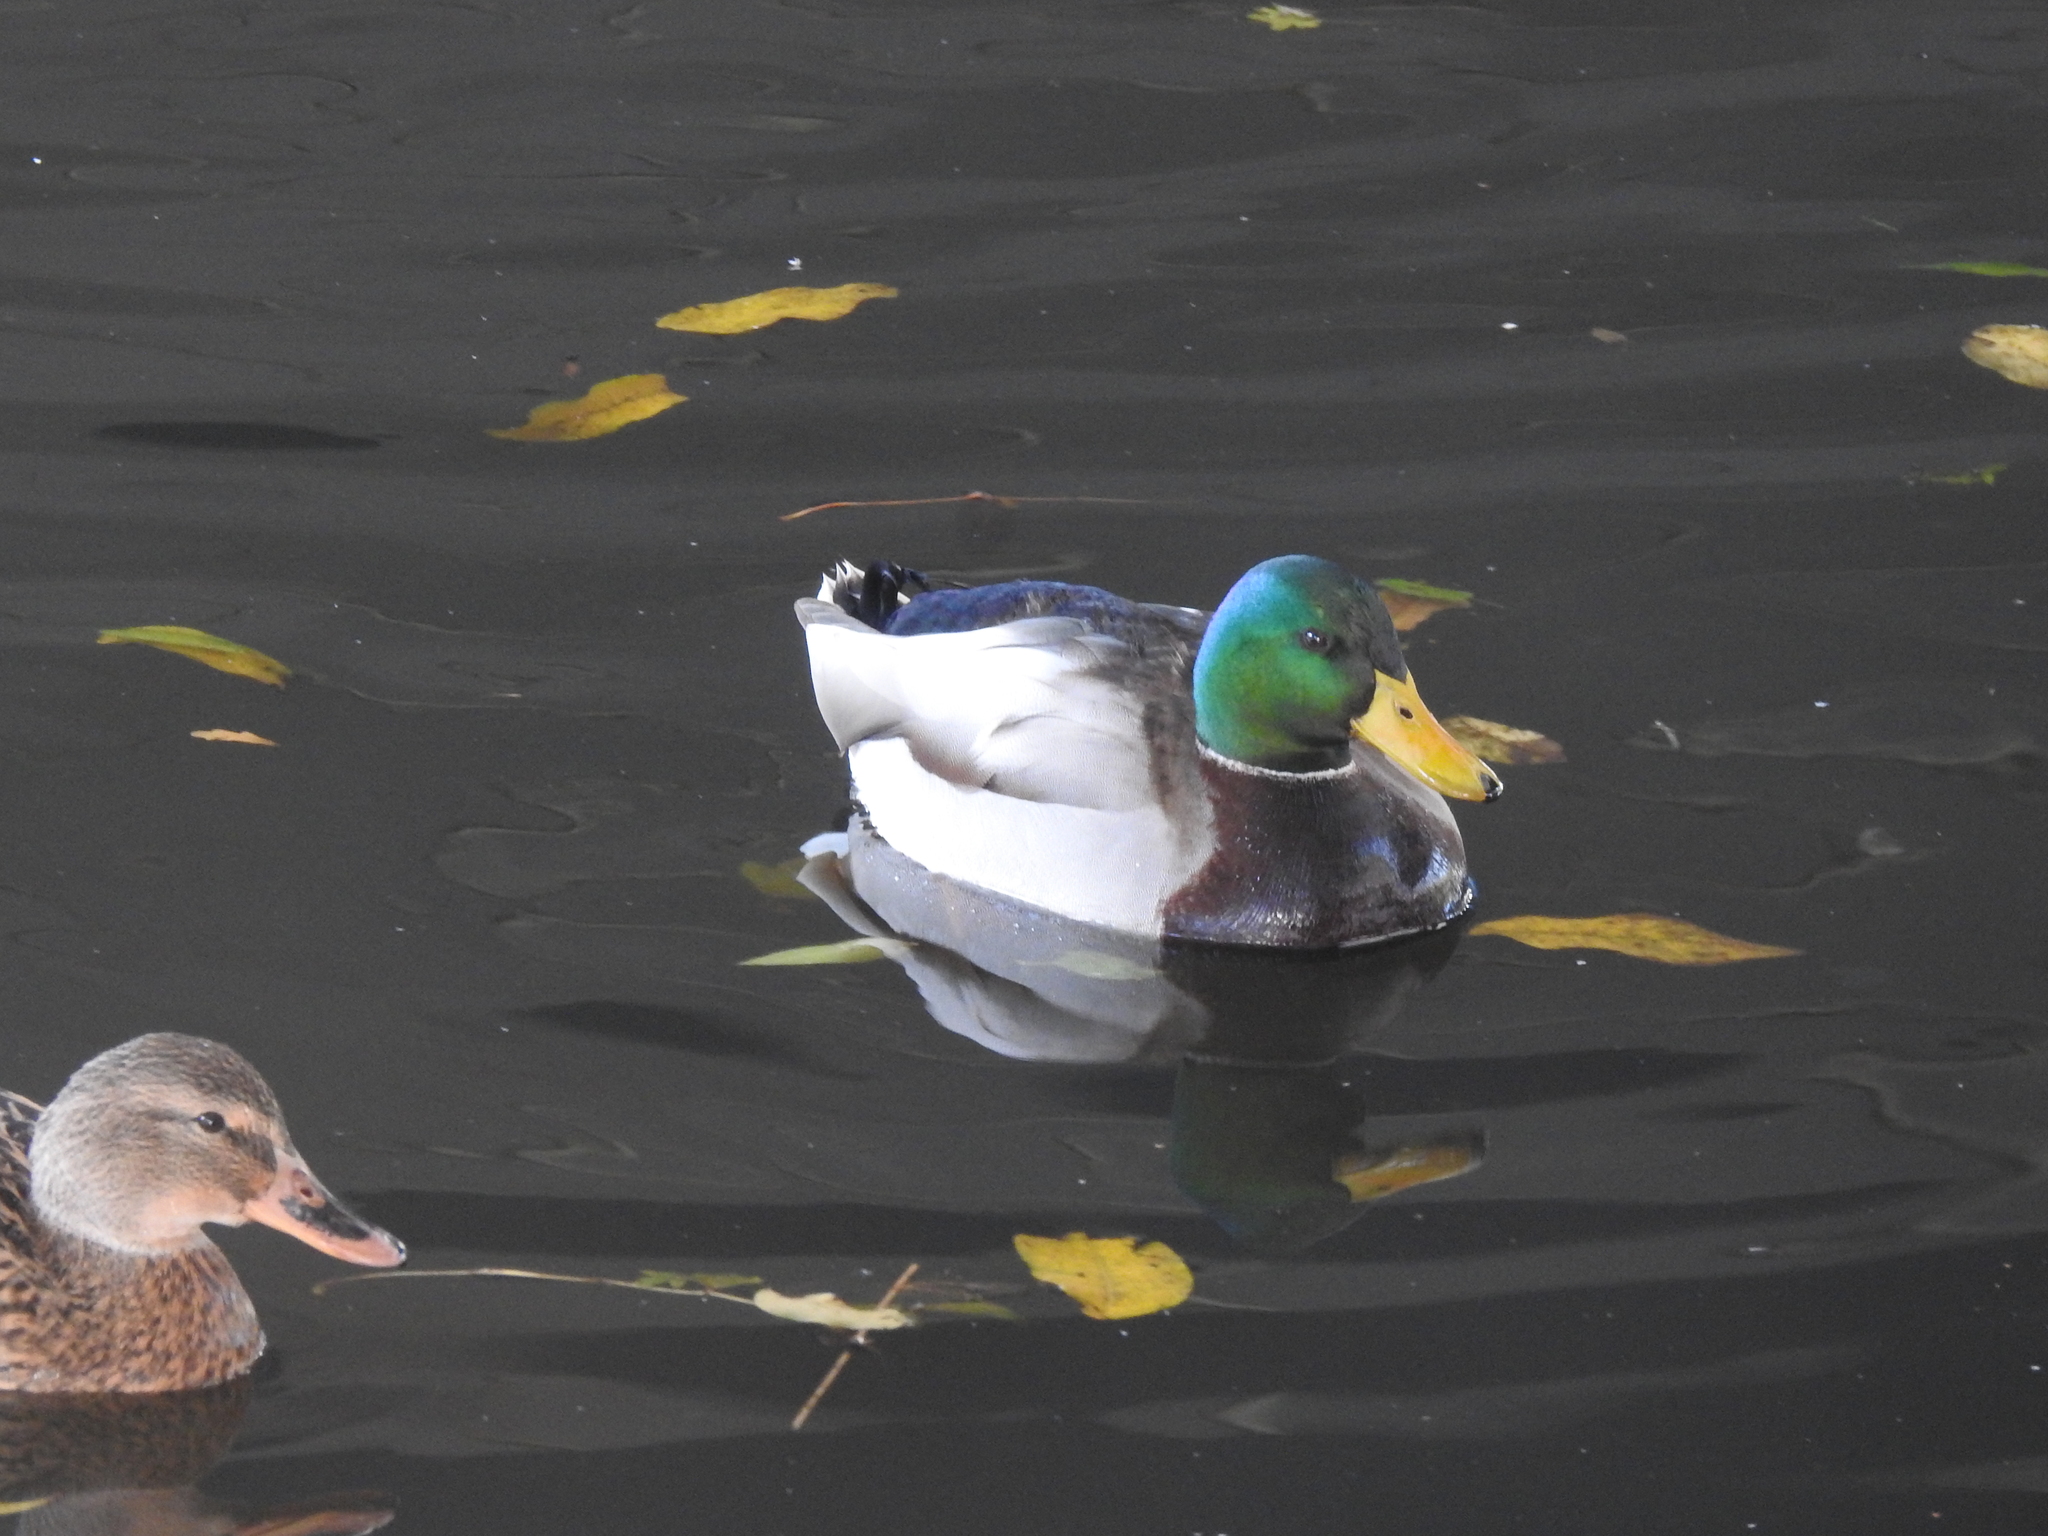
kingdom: Animalia
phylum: Chordata
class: Aves
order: Anseriformes
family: Anatidae
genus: Anas
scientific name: Anas platyrhynchos
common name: Mallard
